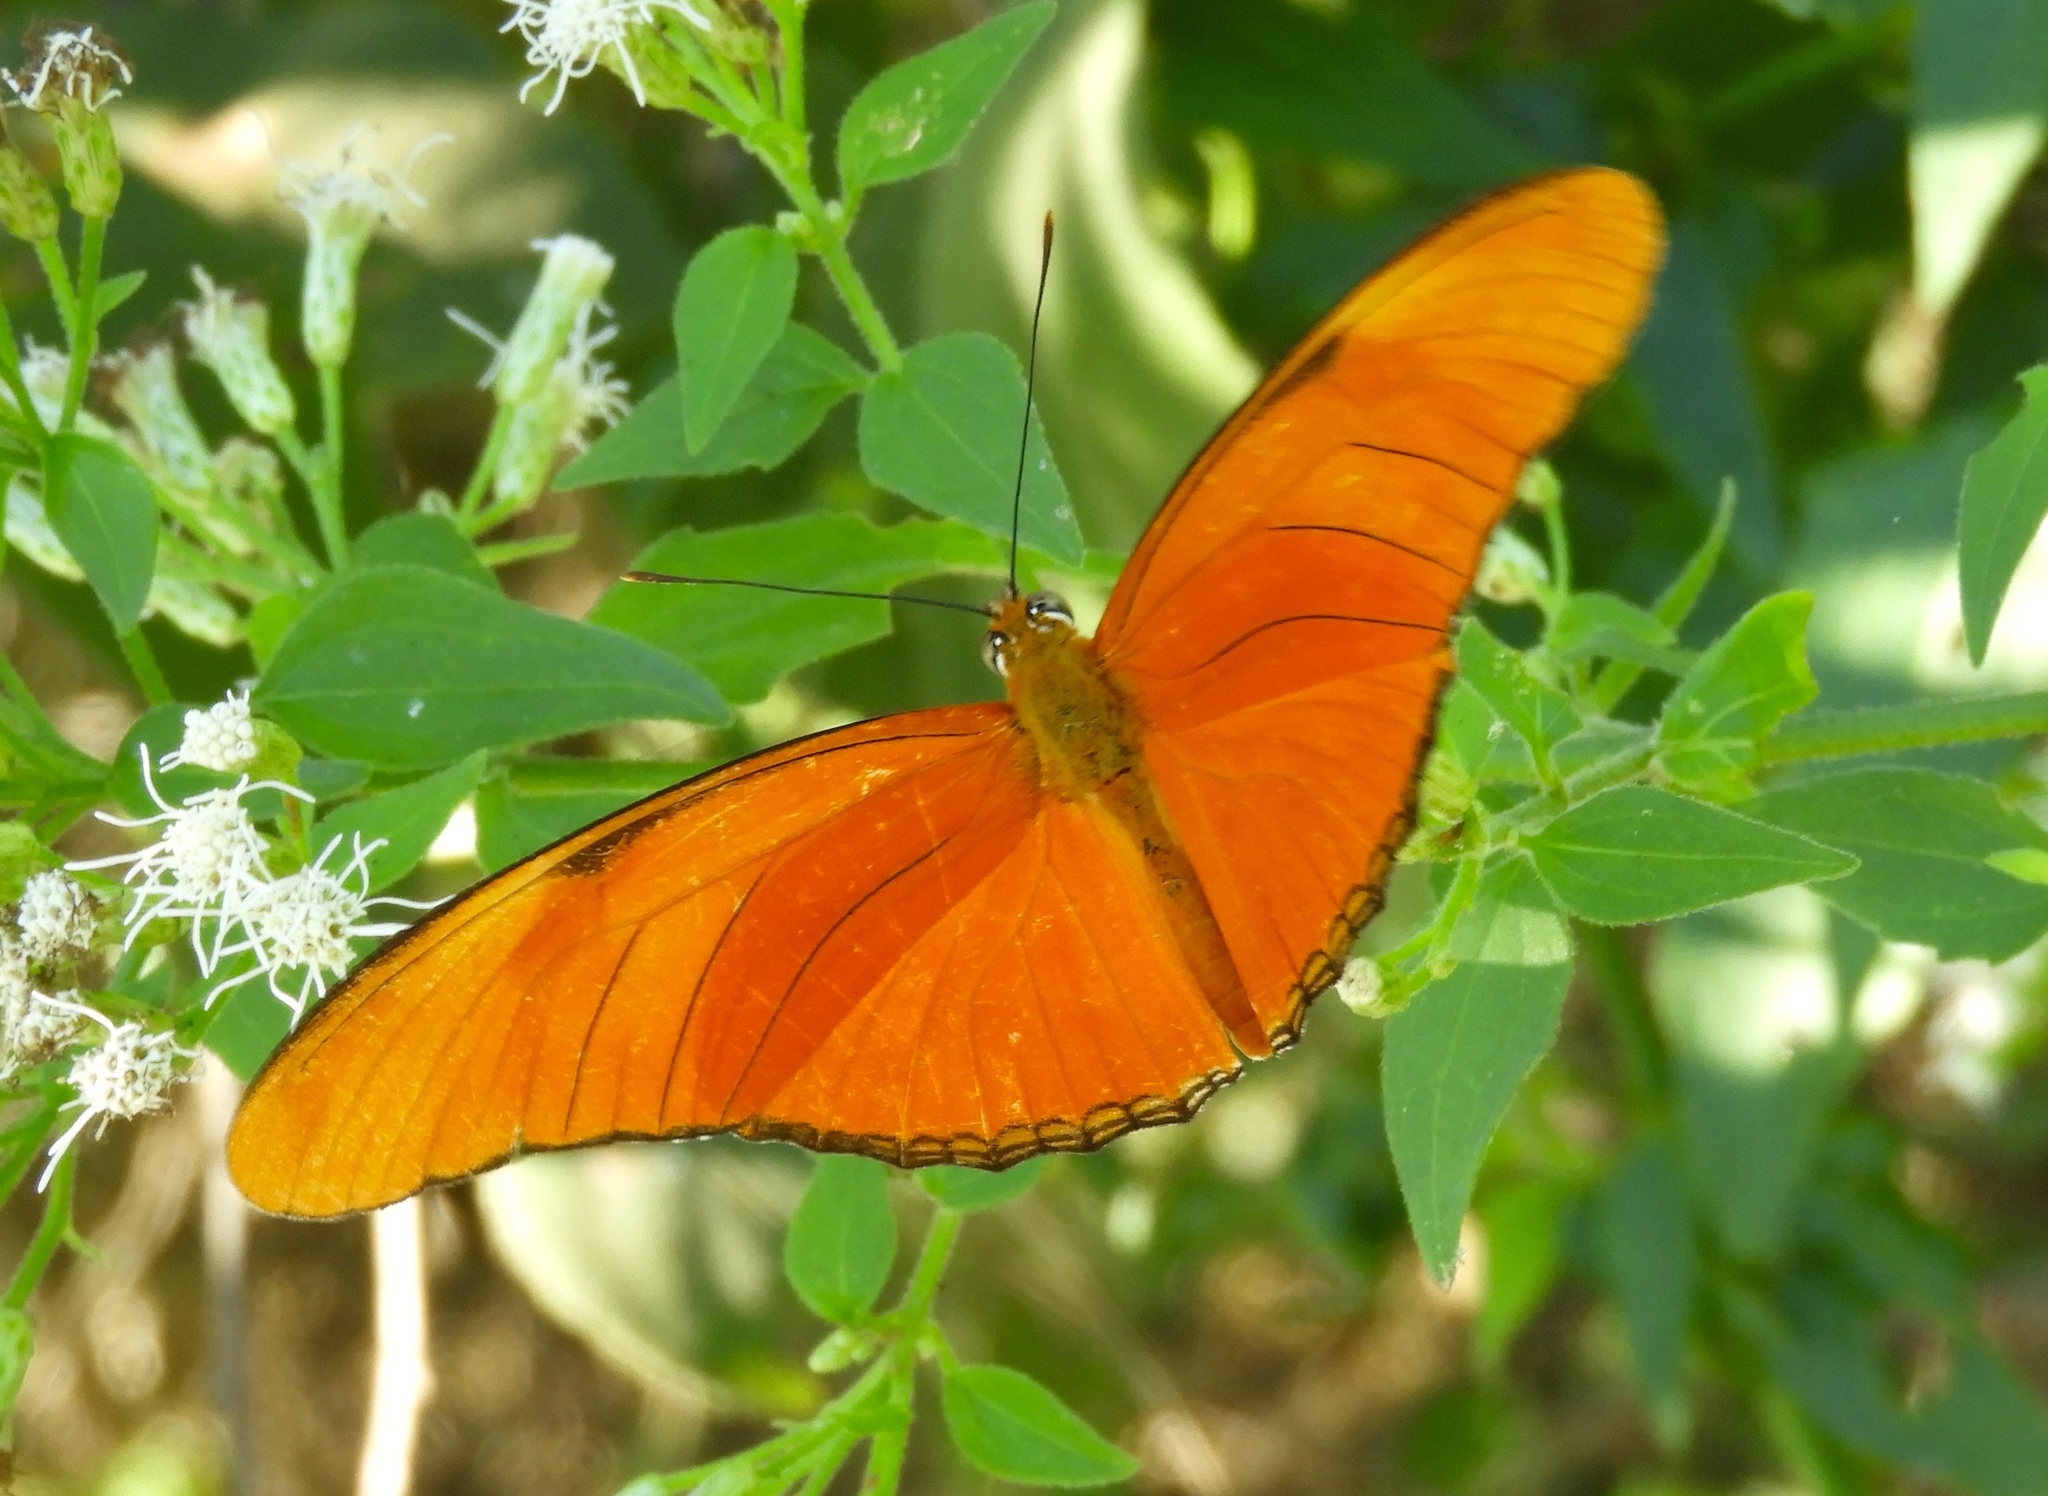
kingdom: Animalia
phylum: Arthropoda
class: Insecta
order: Lepidoptera
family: Nymphalidae
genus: Dryas
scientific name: Dryas iulia
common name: Flambeau
